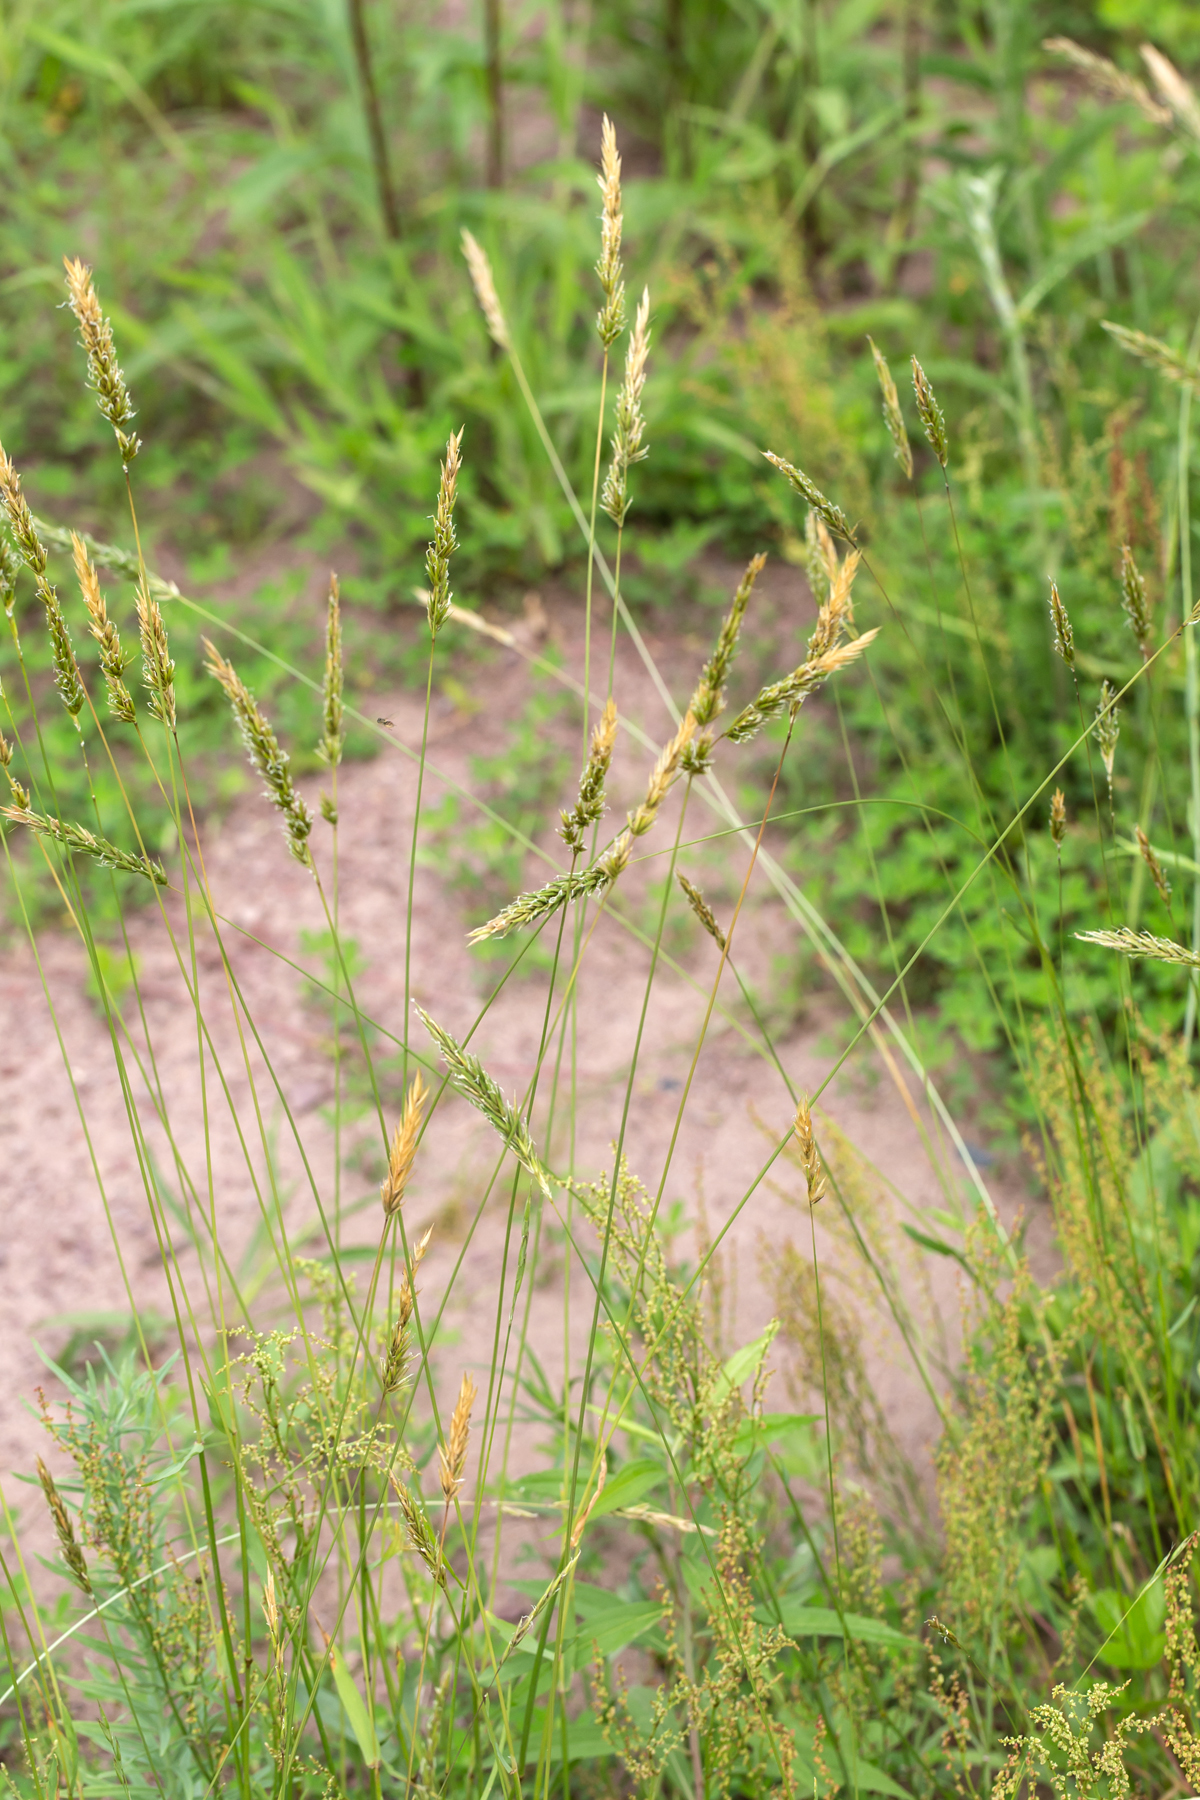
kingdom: Plantae
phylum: Tracheophyta
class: Liliopsida
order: Poales
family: Poaceae
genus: Anthoxanthum
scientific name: Anthoxanthum odoratum
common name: Sweet vernalgrass
